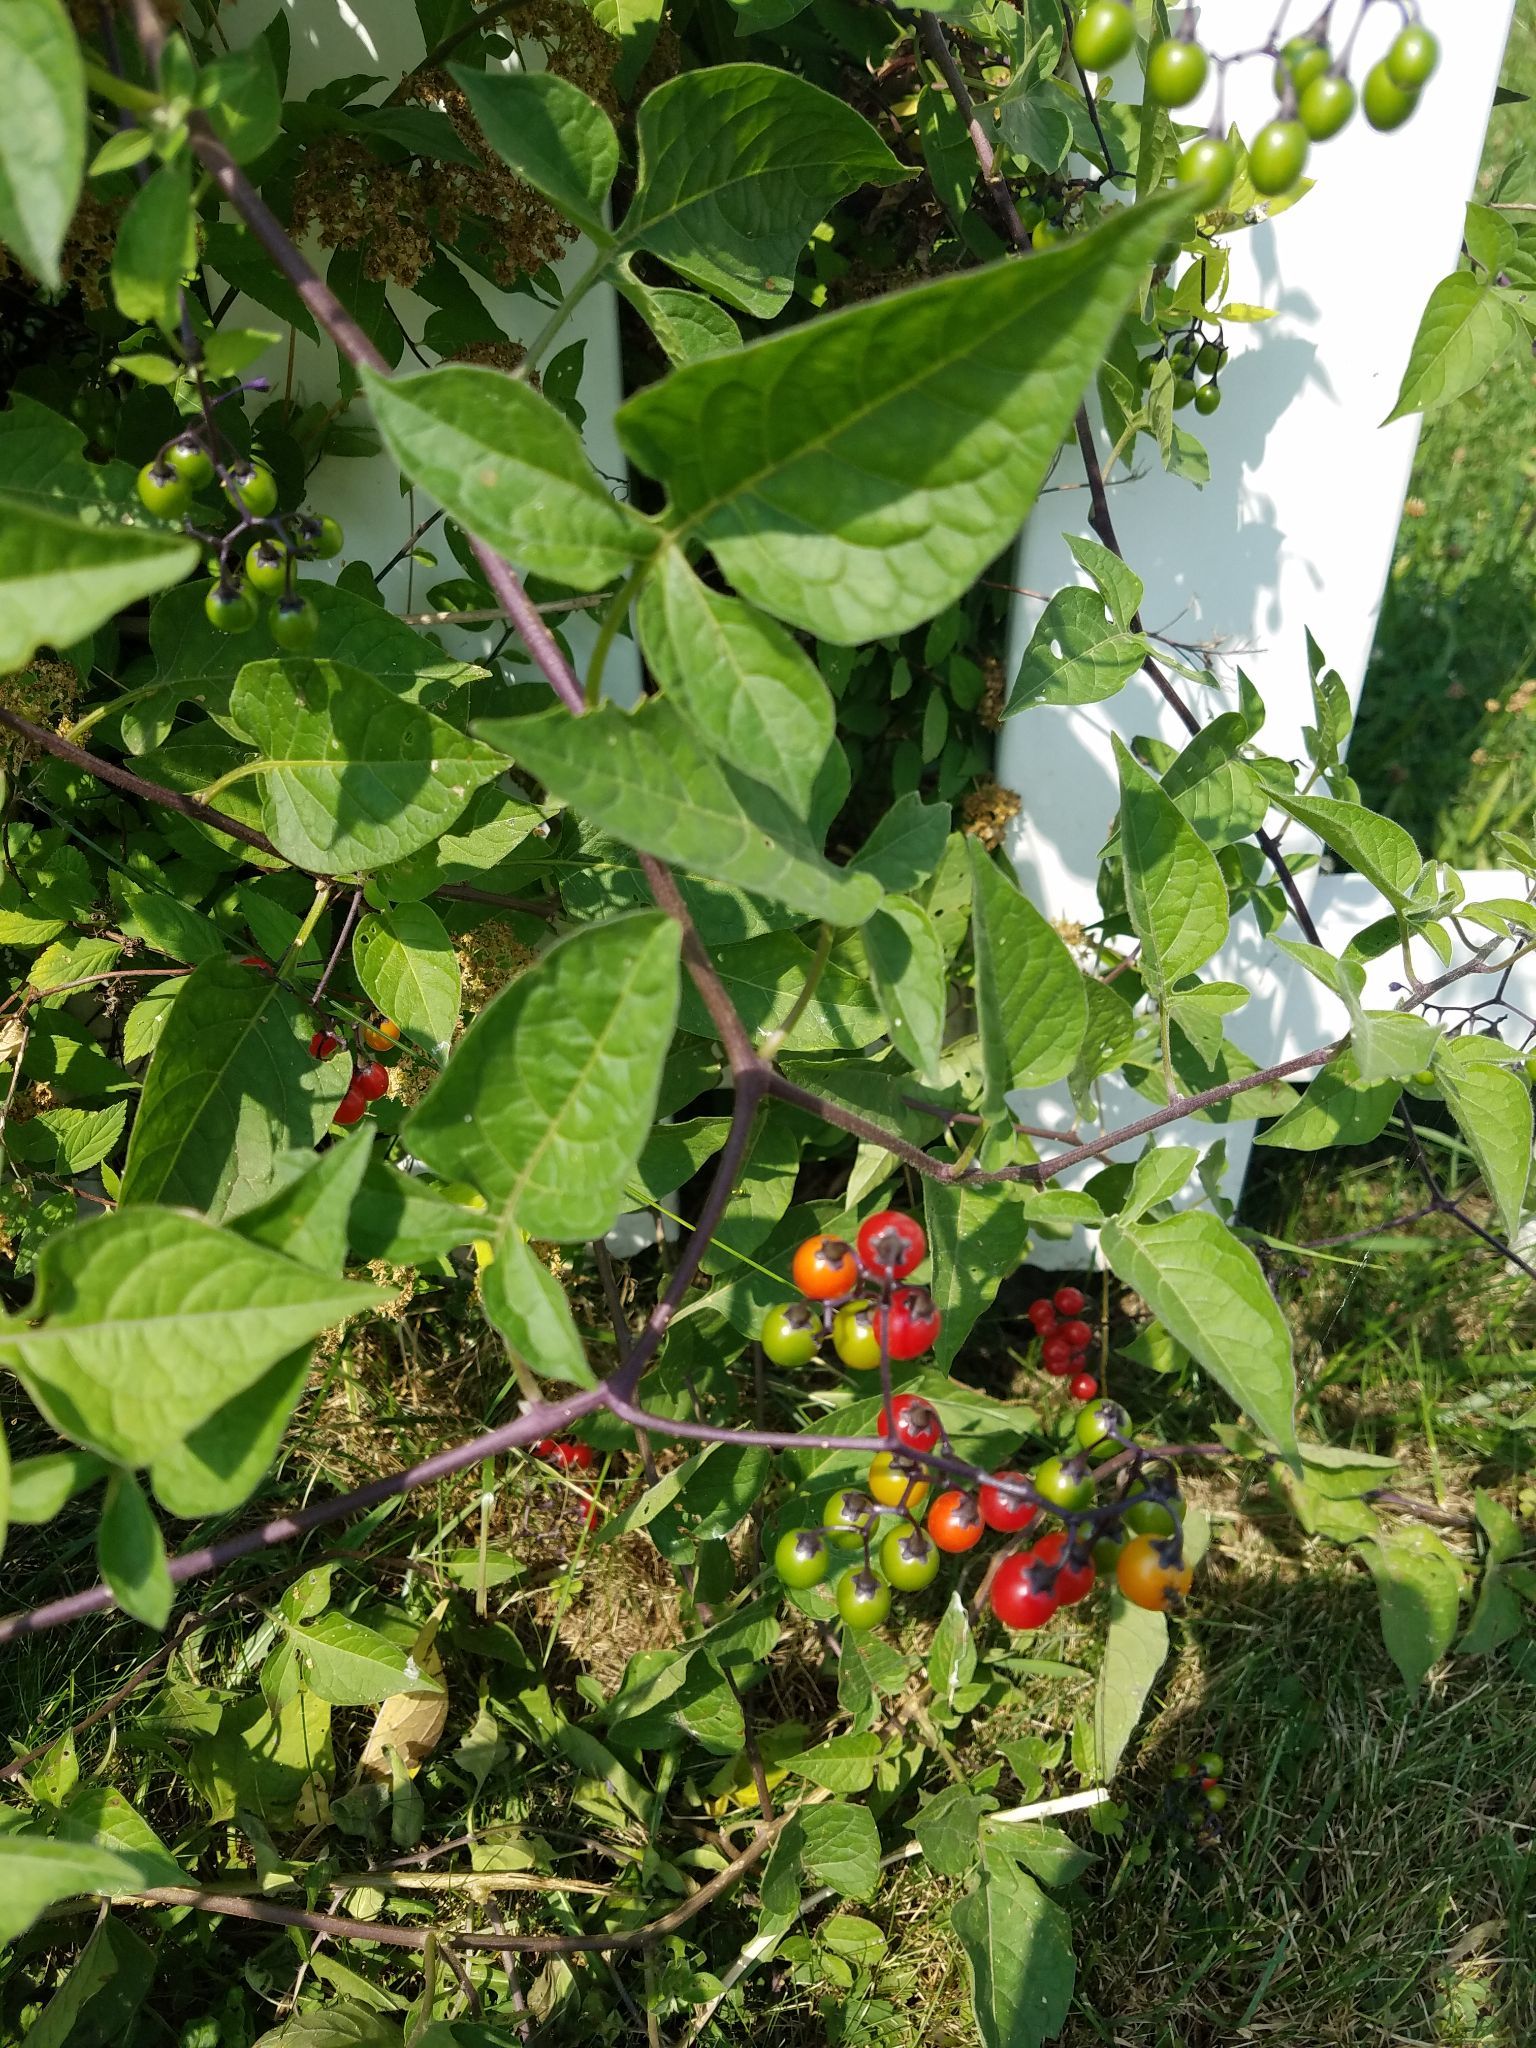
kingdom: Plantae
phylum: Tracheophyta
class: Magnoliopsida
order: Solanales
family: Solanaceae
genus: Solanum
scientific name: Solanum dulcamara
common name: Climbing nightshade
